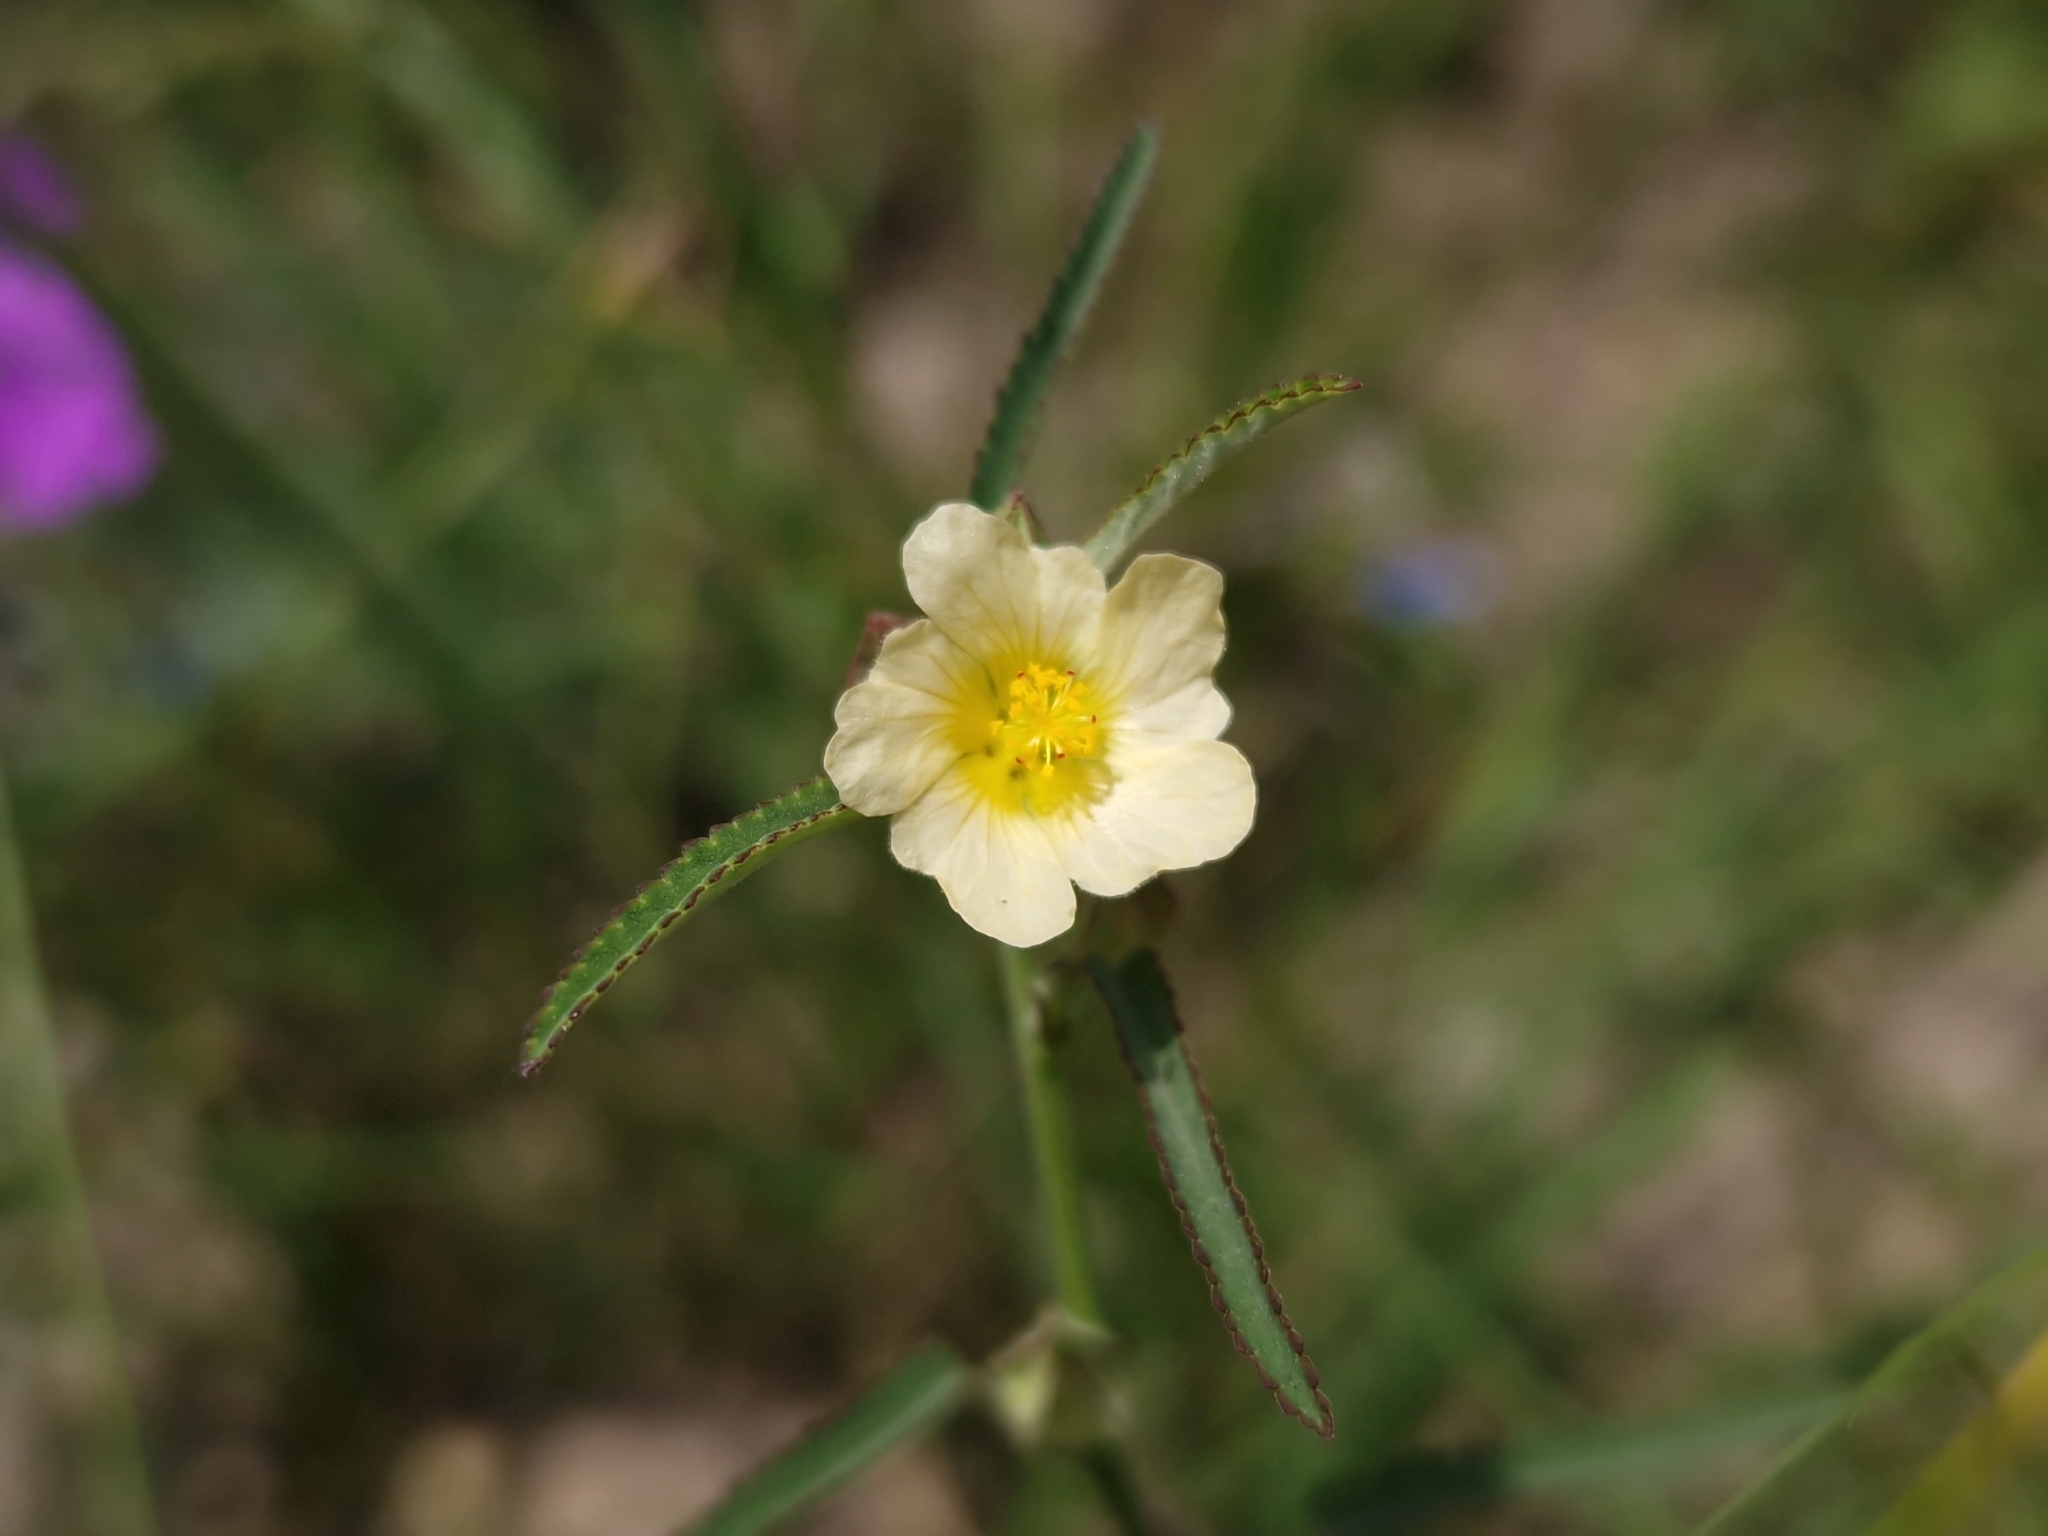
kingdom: Plantae
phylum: Tracheophyta
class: Magnoliopsida
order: Malvales
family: Malvaceae
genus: Sida
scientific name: Sida rhombifolia
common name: Queensland-hemp
